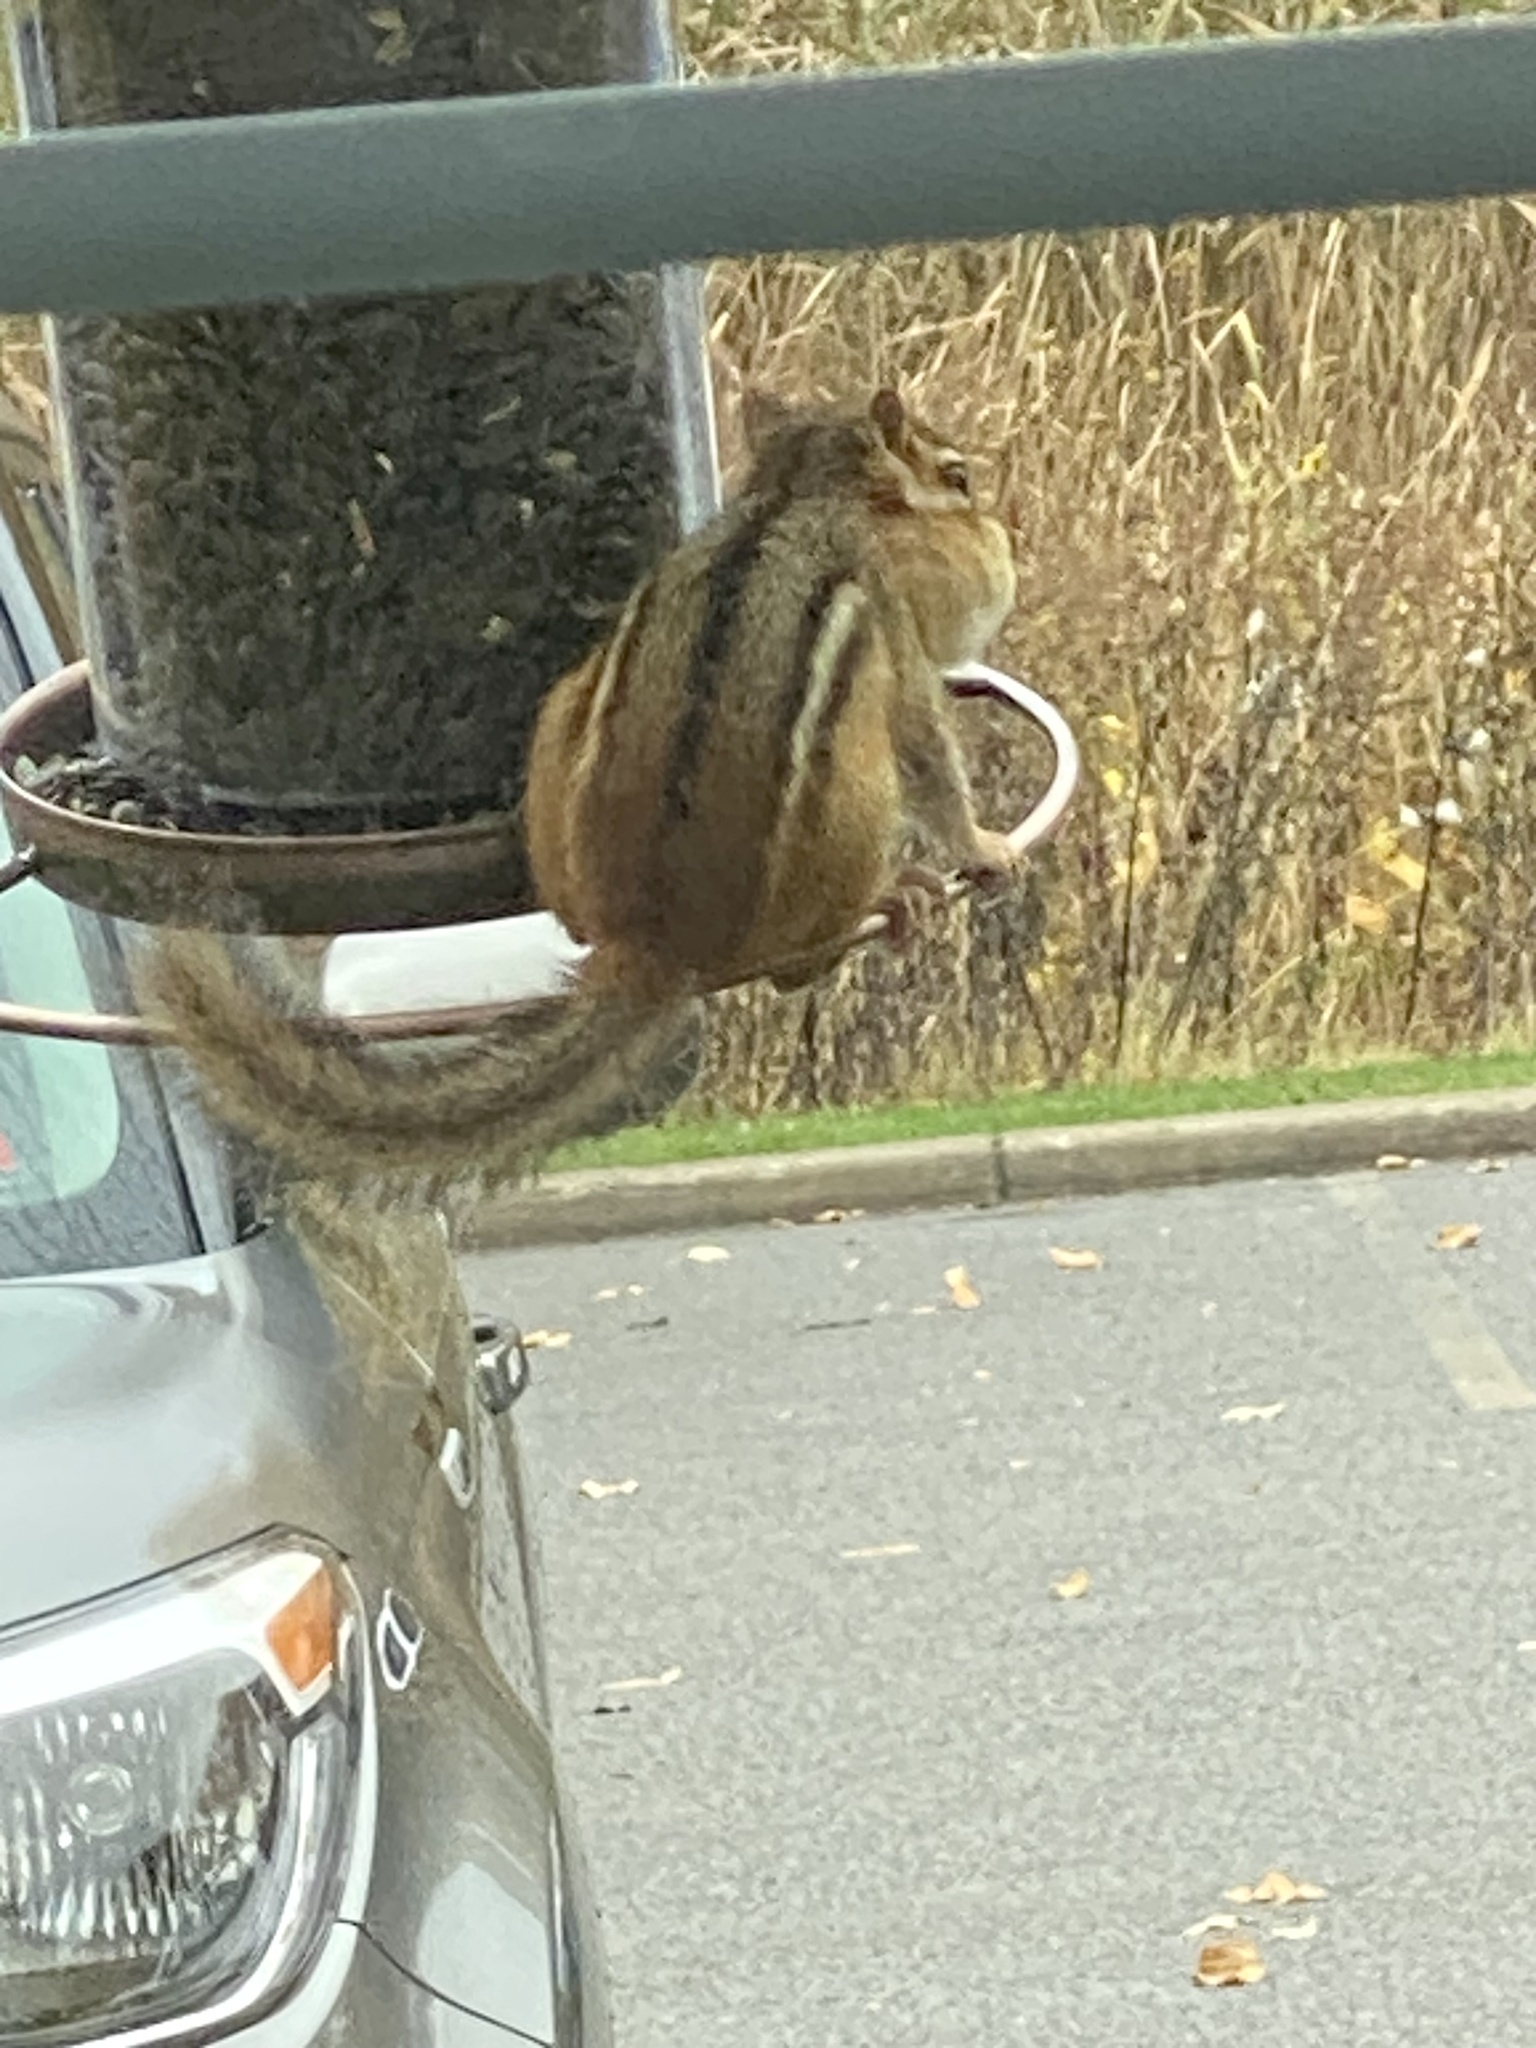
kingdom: Animalia
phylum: Chordata
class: Mammalia
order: Rodentia
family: Sciuridae
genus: Tamias
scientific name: Tamias striatus
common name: Eastern chipmunk
